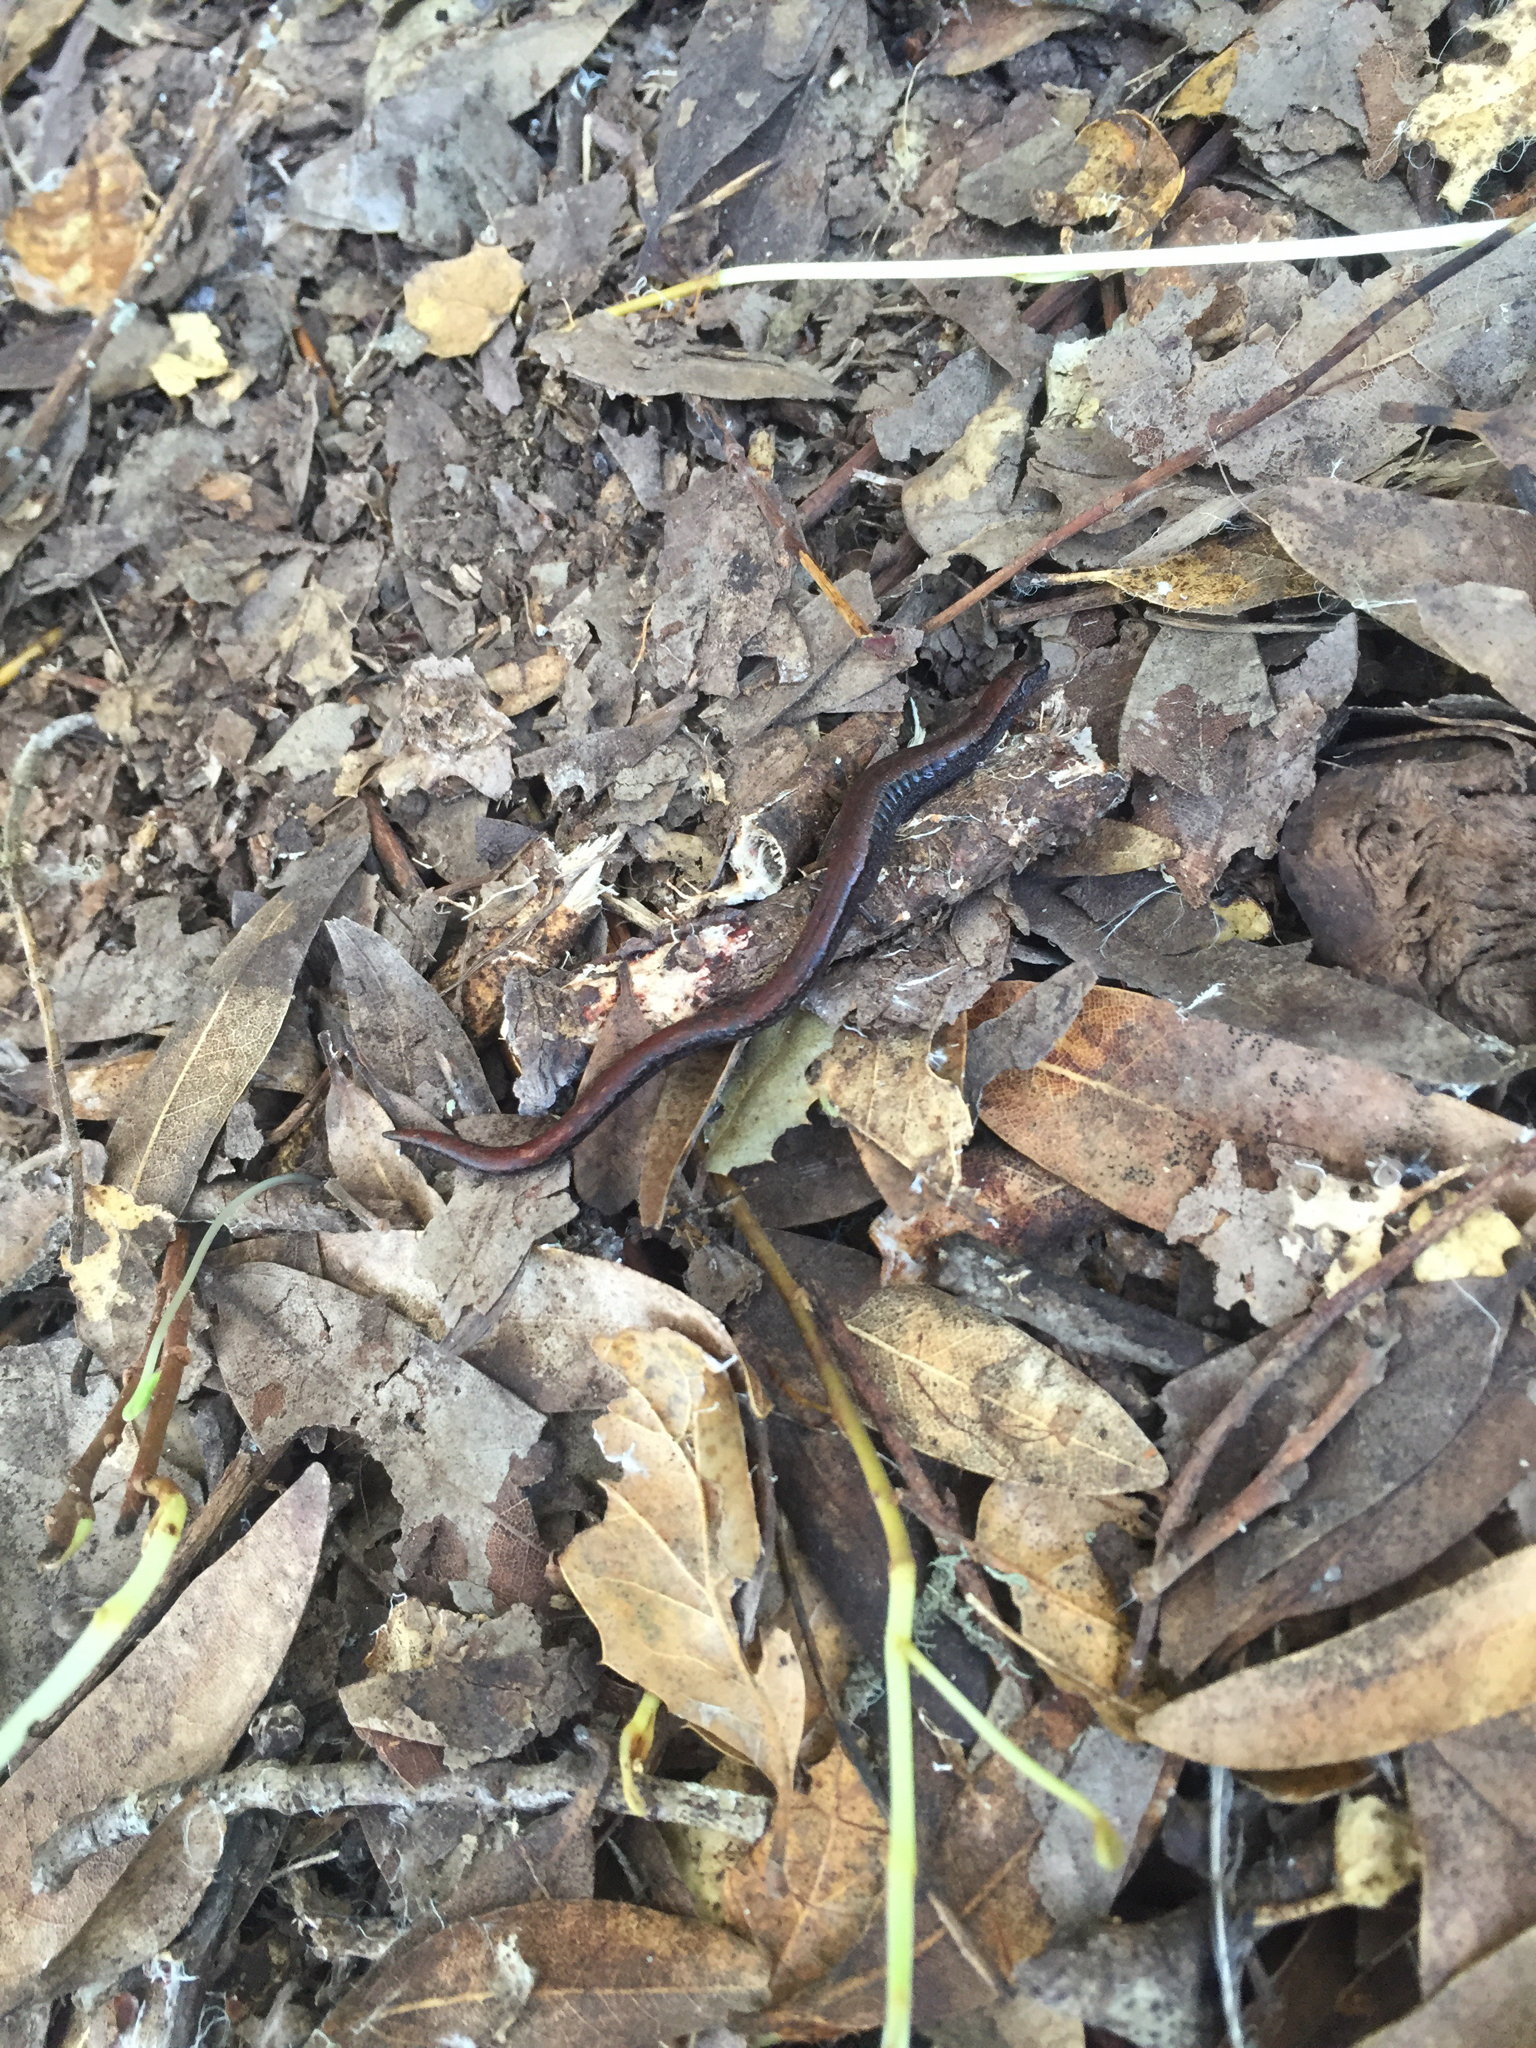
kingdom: Animalia
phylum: Chordata
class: Amphibia
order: Caudata
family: Plethodontidae
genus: Batrachoseps
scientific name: Batrachoseps attenuatus
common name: California slender salamander
